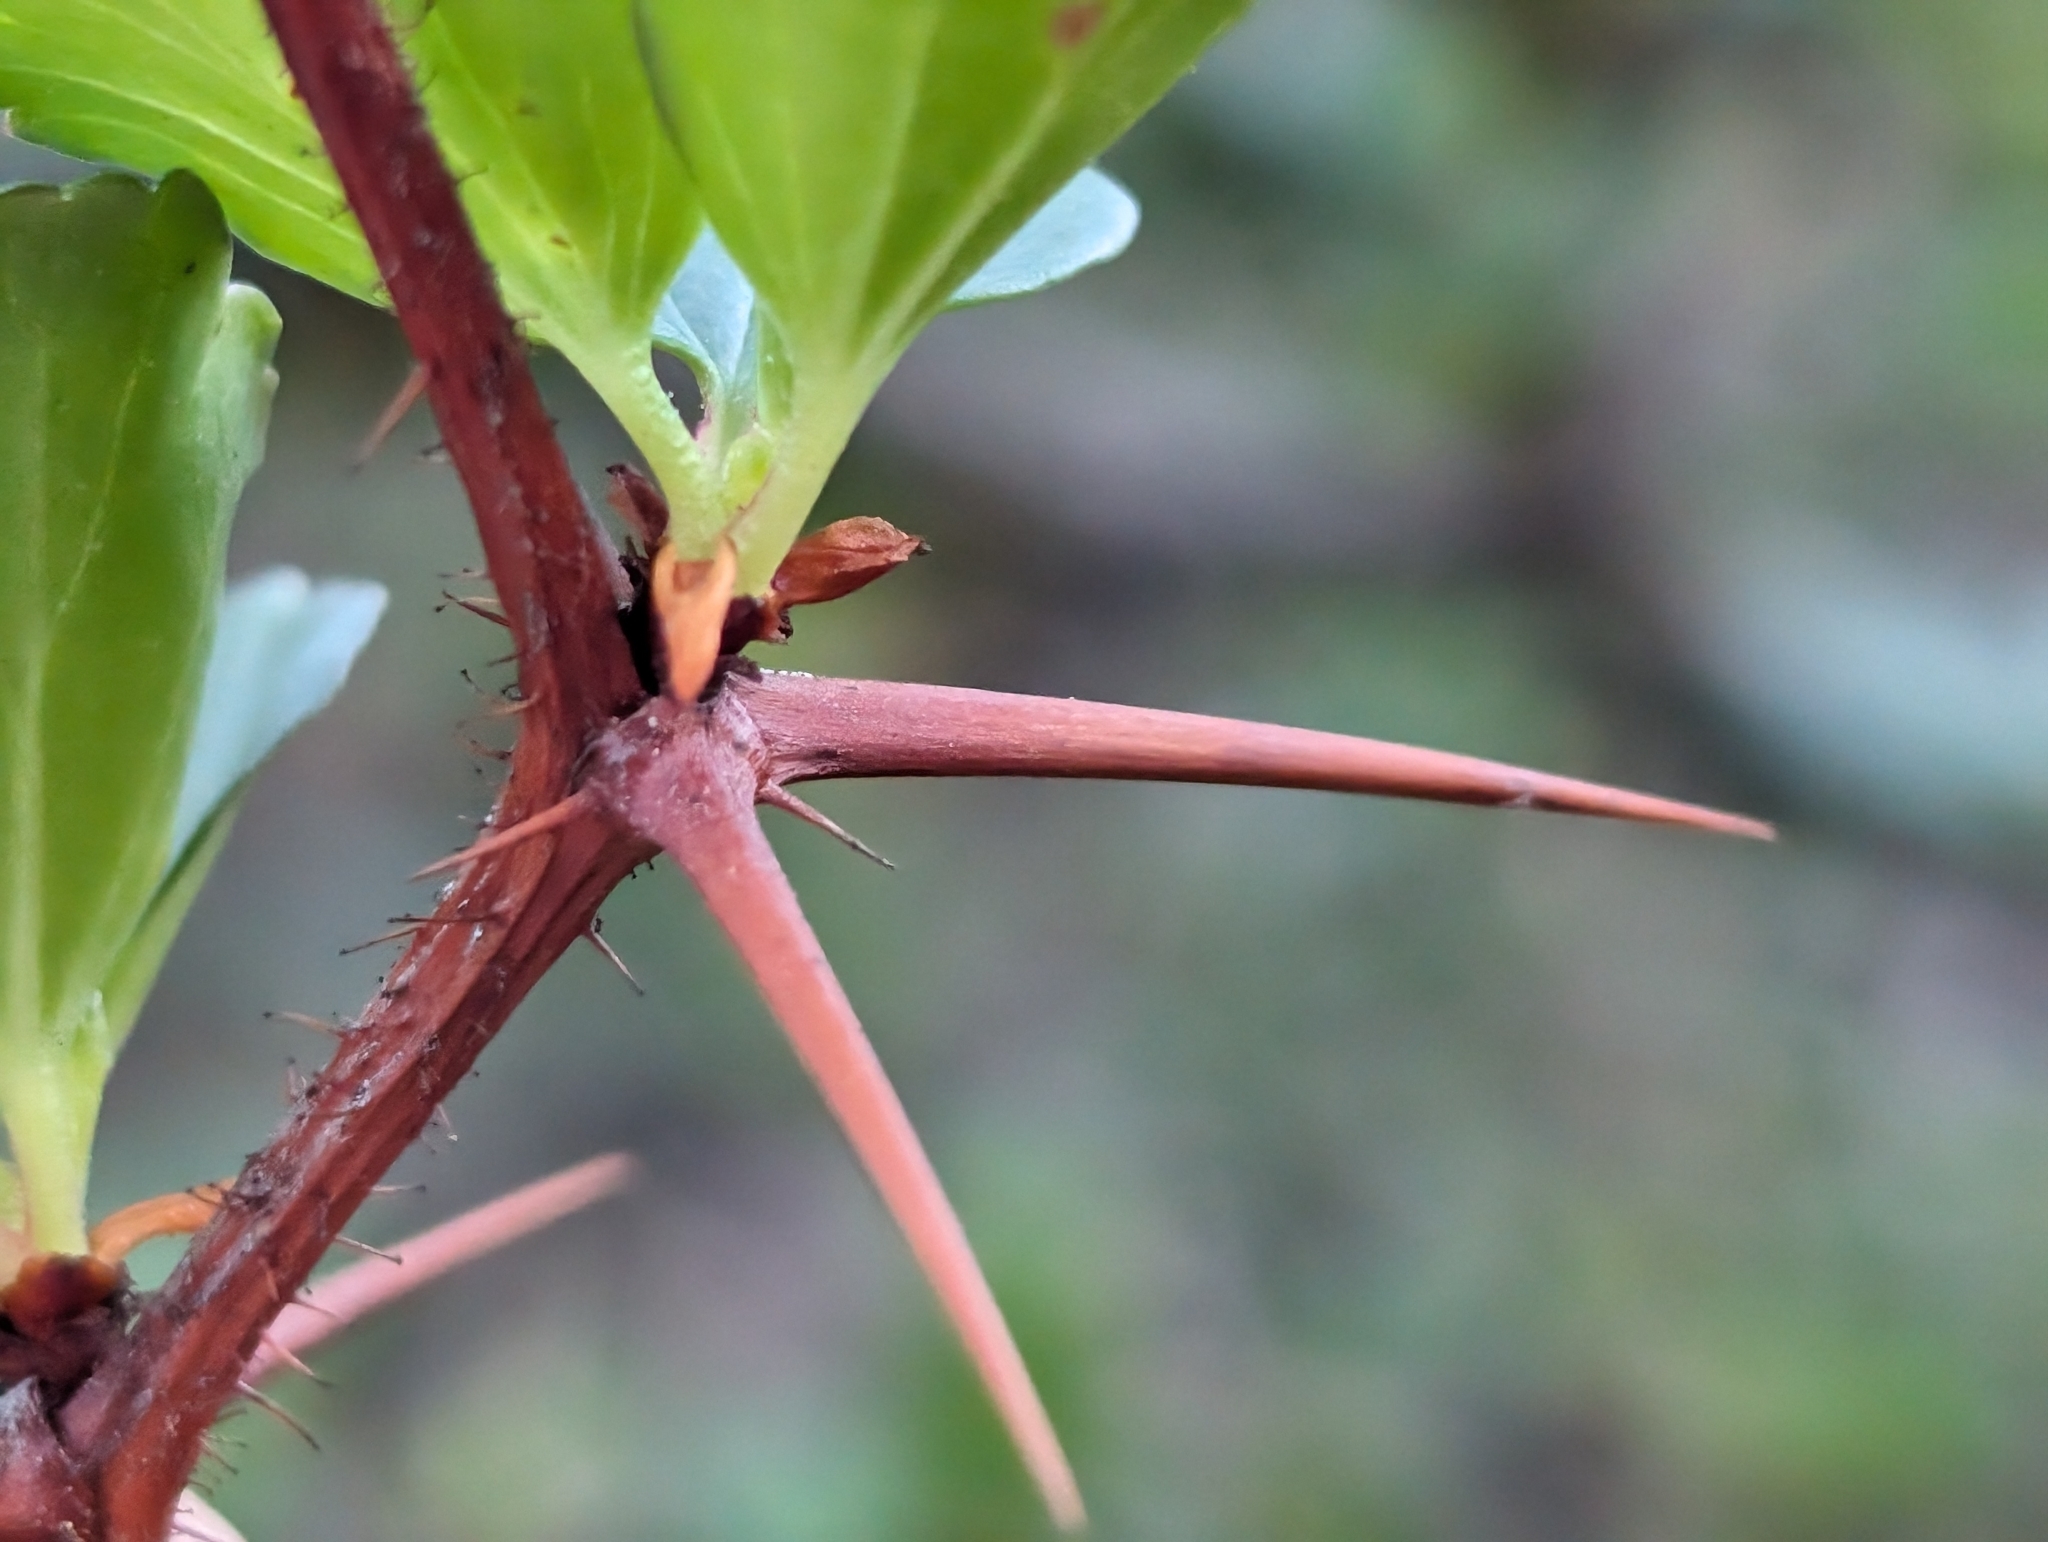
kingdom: Plantae
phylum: Tracheophyta
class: Magnoliopsida
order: Saxifragales
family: Grossulariaceae
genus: Ribes
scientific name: Ribes speciosum
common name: Fuchsia-flower gooseberry
